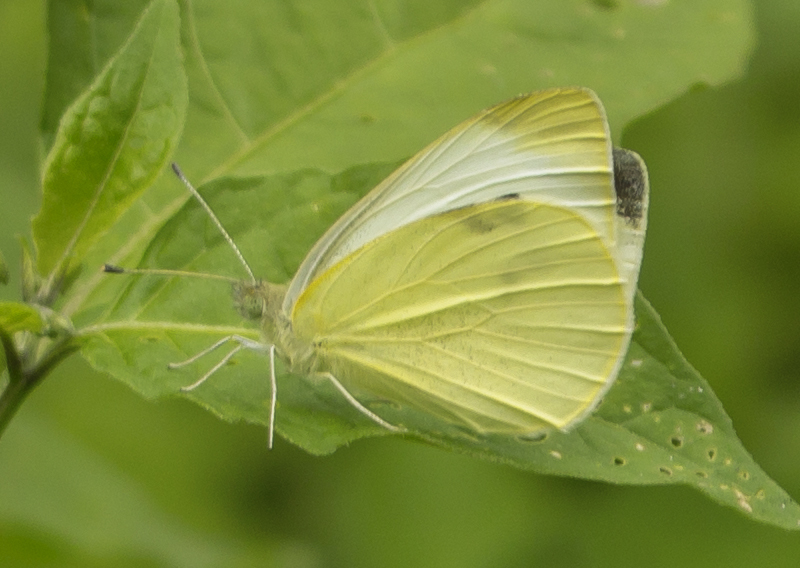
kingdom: Animalia
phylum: Arthropoda
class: Insecta
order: Lepidoptera
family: Pieridae
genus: Pieris
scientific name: Pieris rapae
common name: Small white
